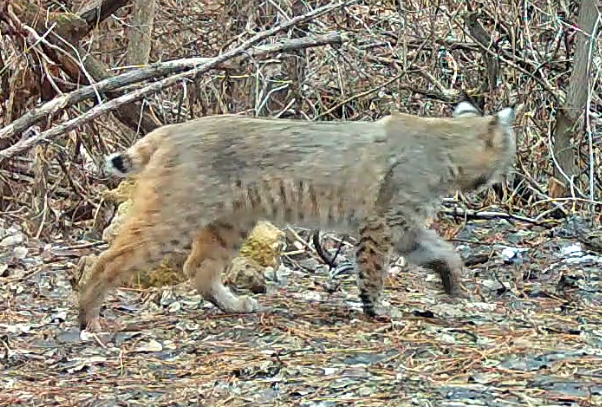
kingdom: Animalia
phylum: Chordata
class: Mammalia
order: Carnivora
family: Felidae
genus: Lynx
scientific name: Lynx rufus
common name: Bobcat
